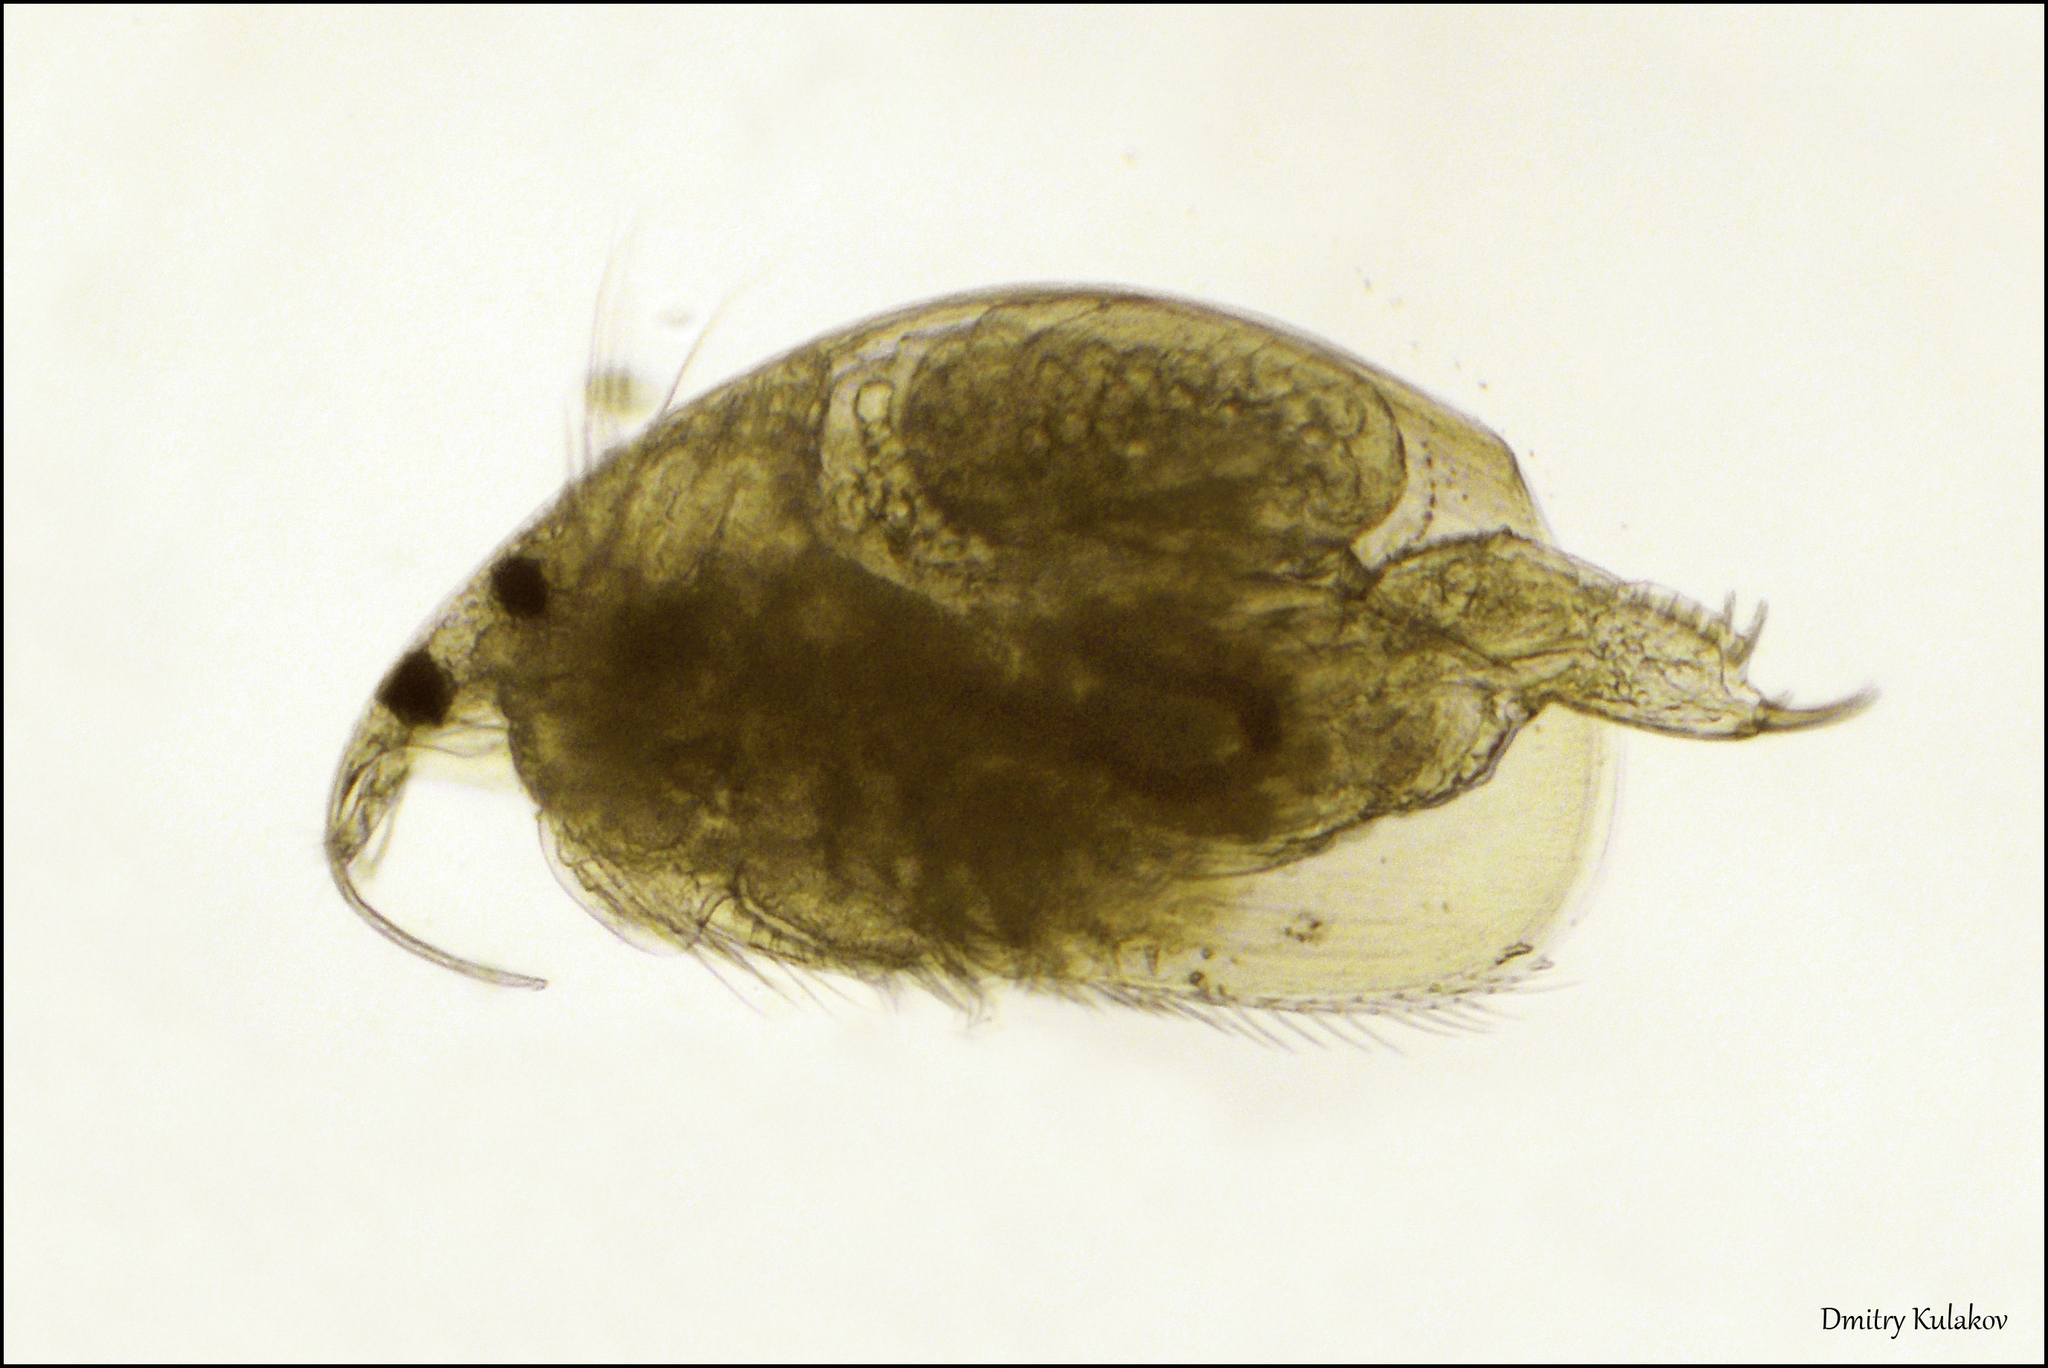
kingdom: Animalia
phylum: Arthropoda
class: Branchiopoda
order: Diplostraca
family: Chydoridae
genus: Rhynchotalona
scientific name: Rhynchotalona falcata
